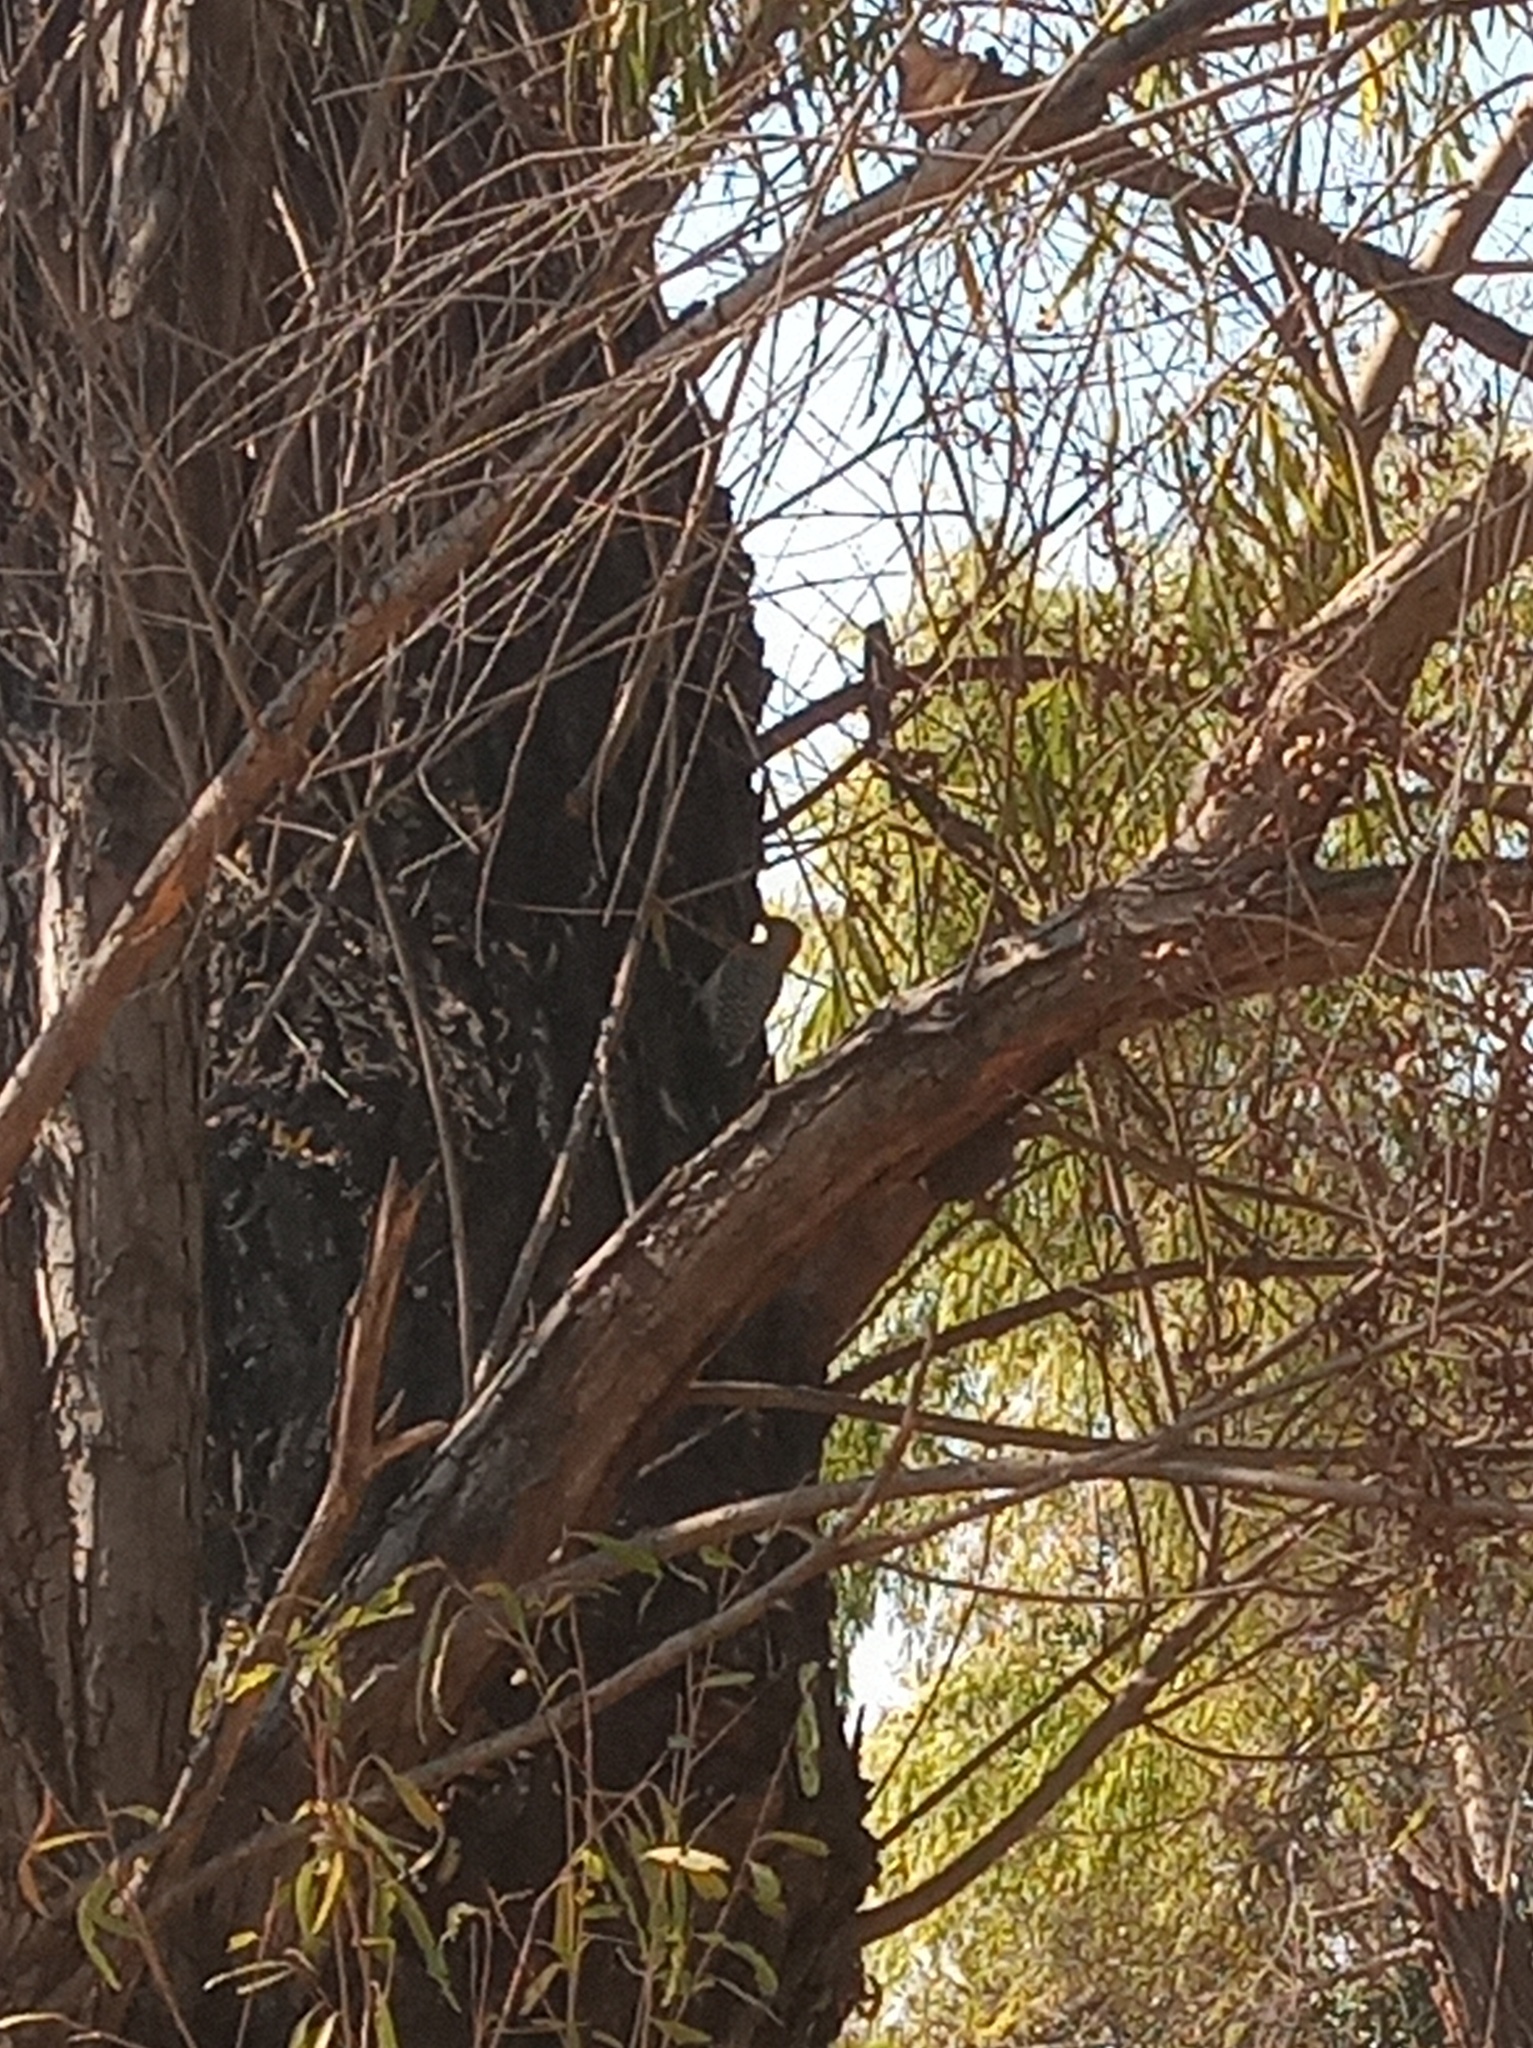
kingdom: Animalia
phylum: Chordata
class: Aves
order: Piciformes
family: Picidae
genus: Melanerpes
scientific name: Melanerpes aurifrons
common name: Golden-fronted woodpecker
